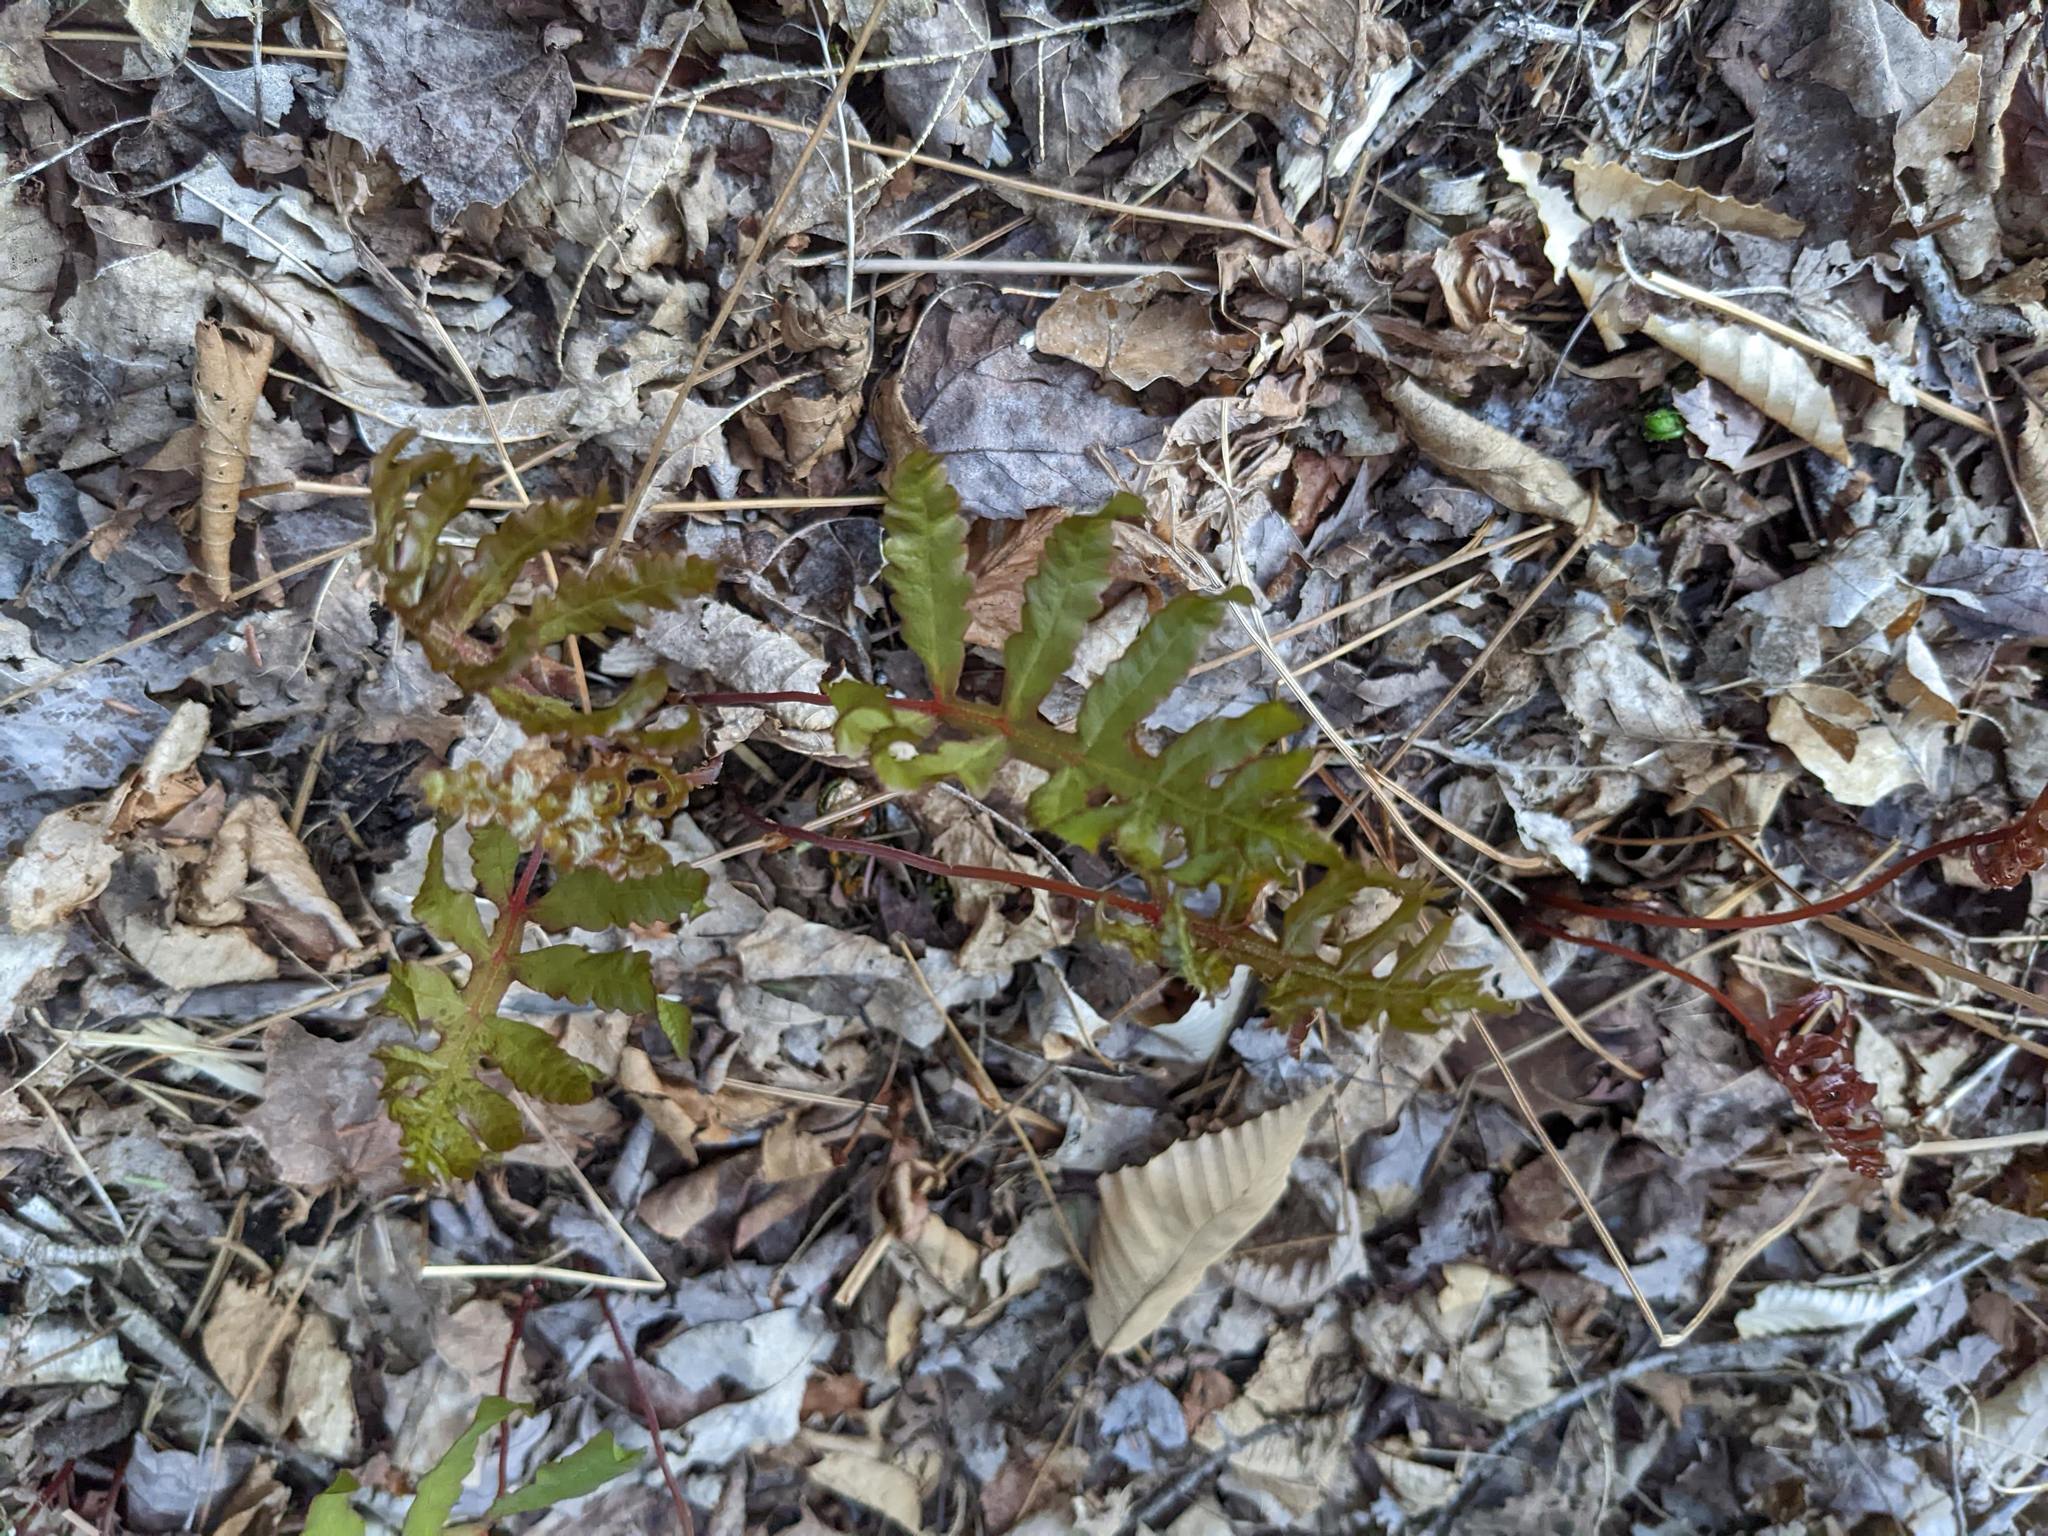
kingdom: Plantae
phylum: Tracheophyta
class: Polypodiopsida
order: Polypodiales
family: Onocleaceae
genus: Onoclea
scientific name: Onoclea sensibilis
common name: Sensitive fern
